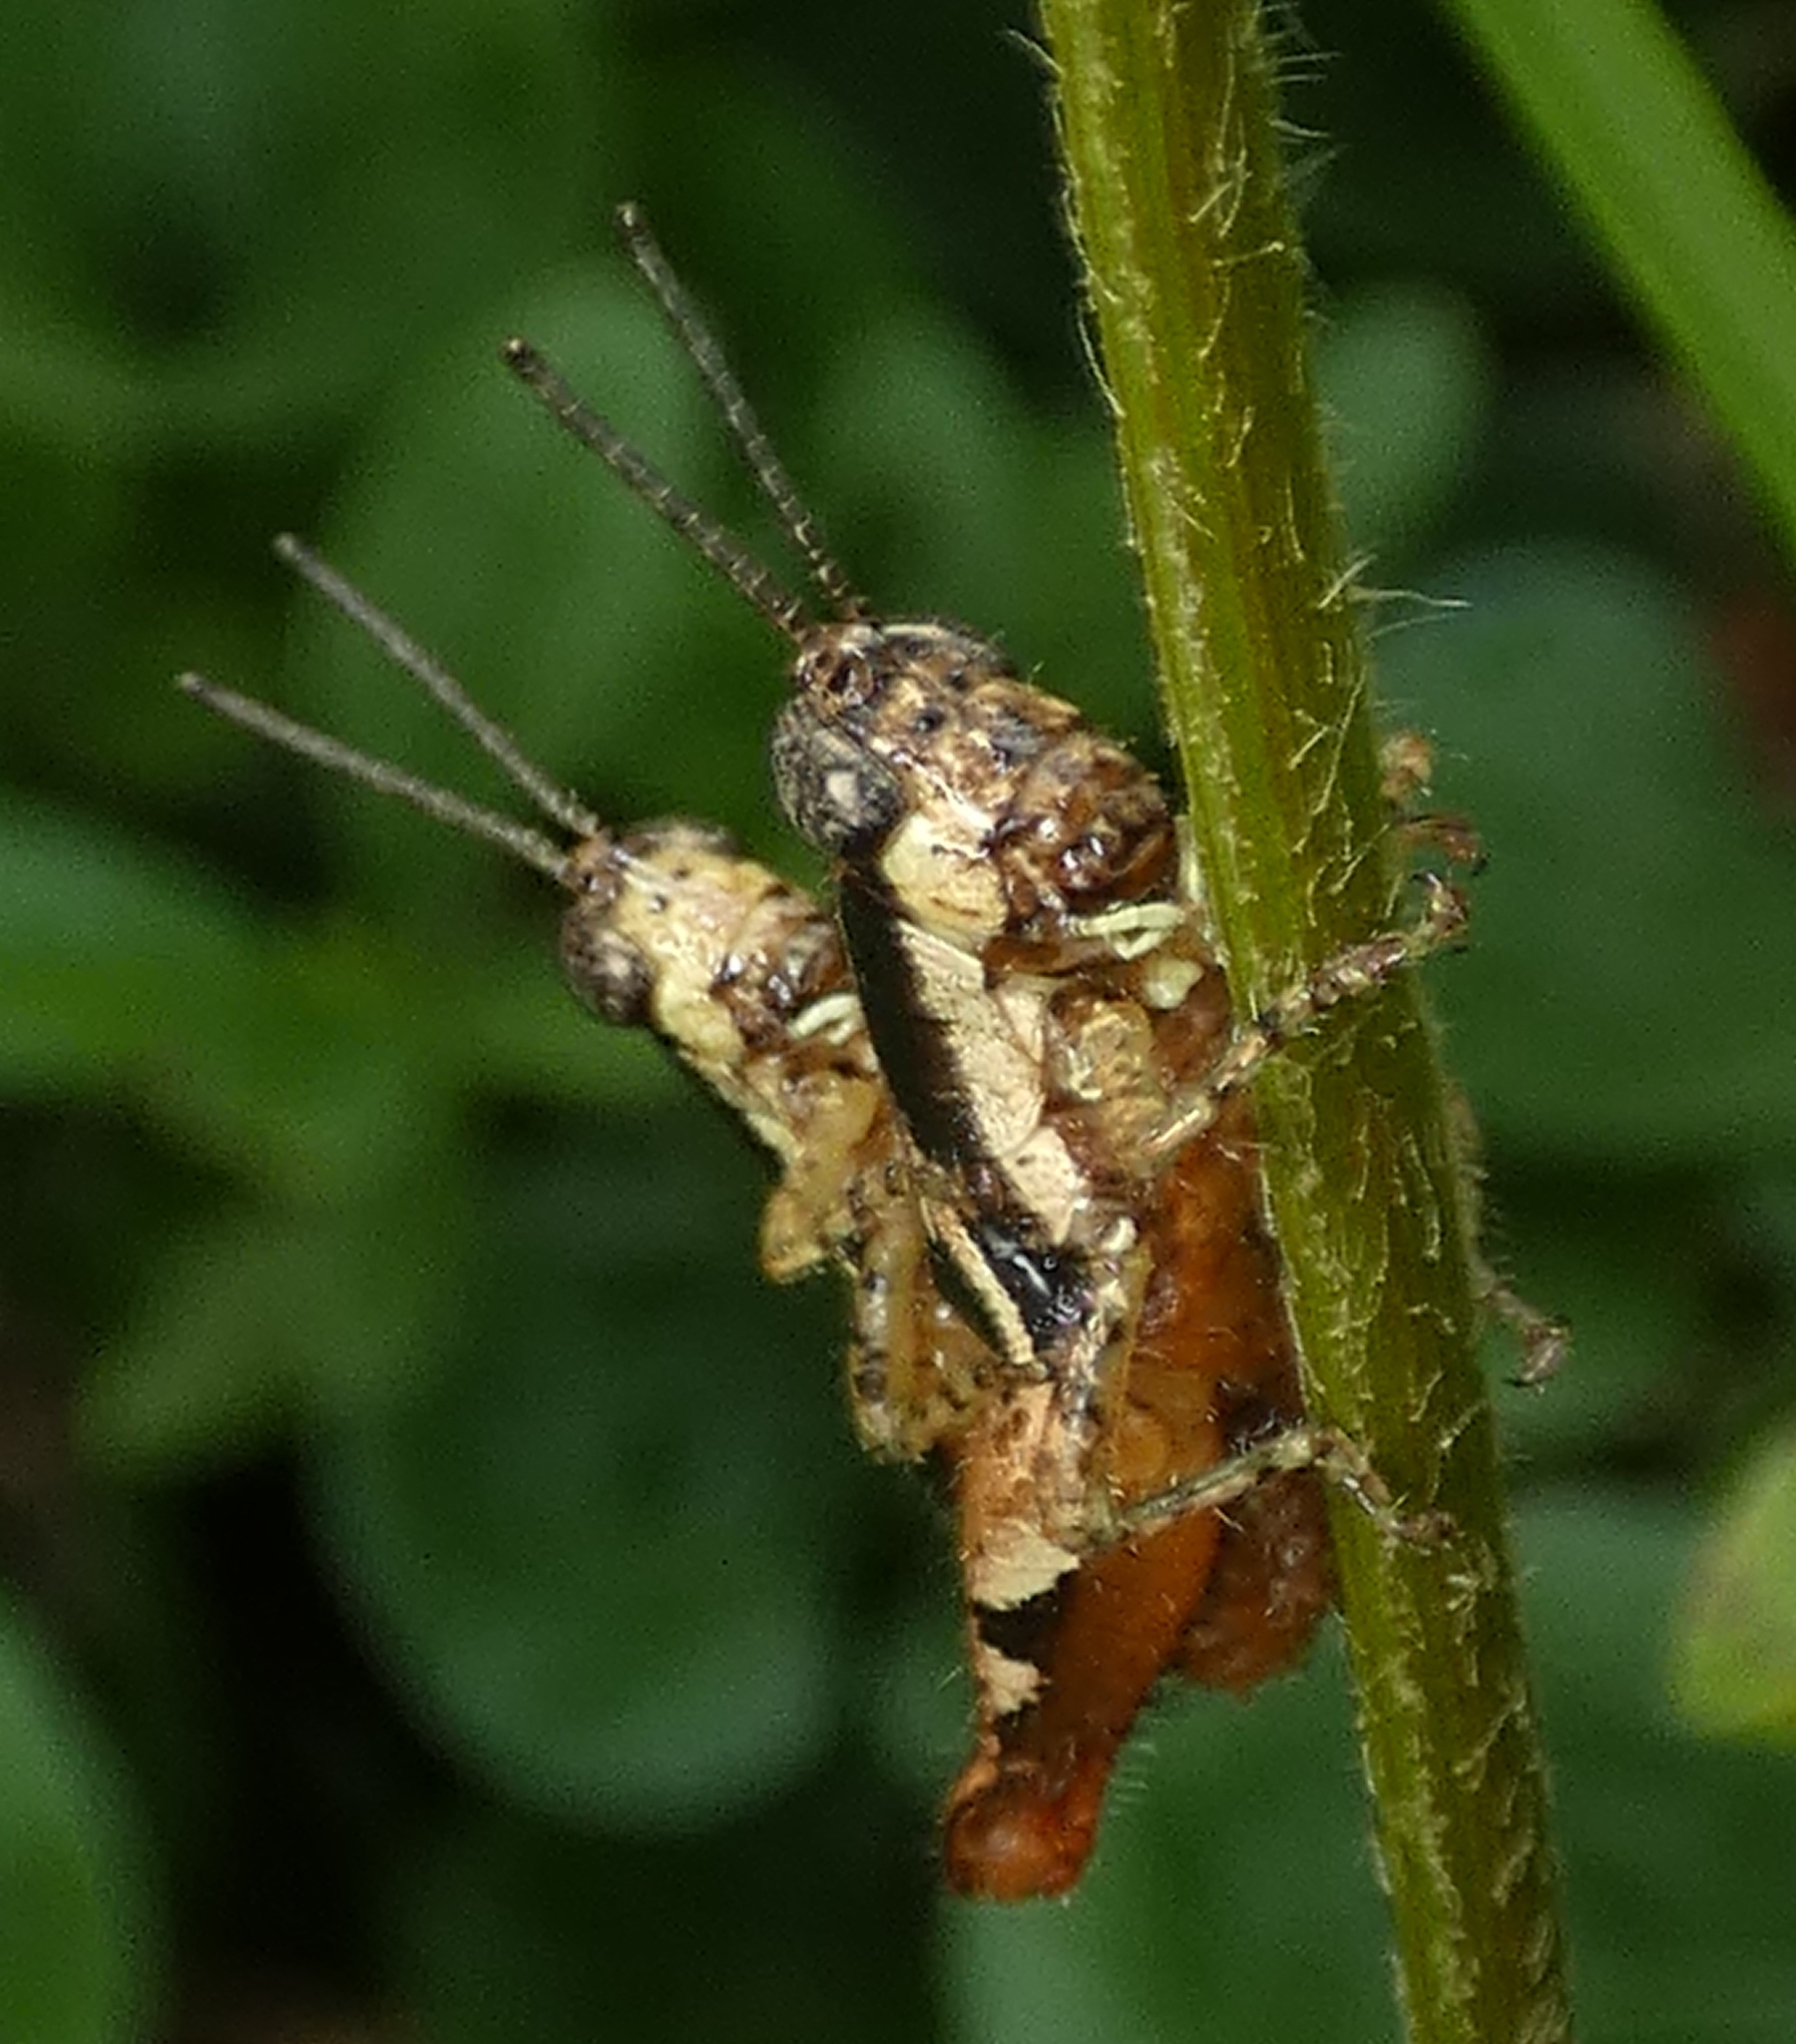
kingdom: Animalia
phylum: Arthropoda
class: Insecta
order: Orthoptera
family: Acrididae
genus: Eujivarus
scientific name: Eujivarus meridionalis
